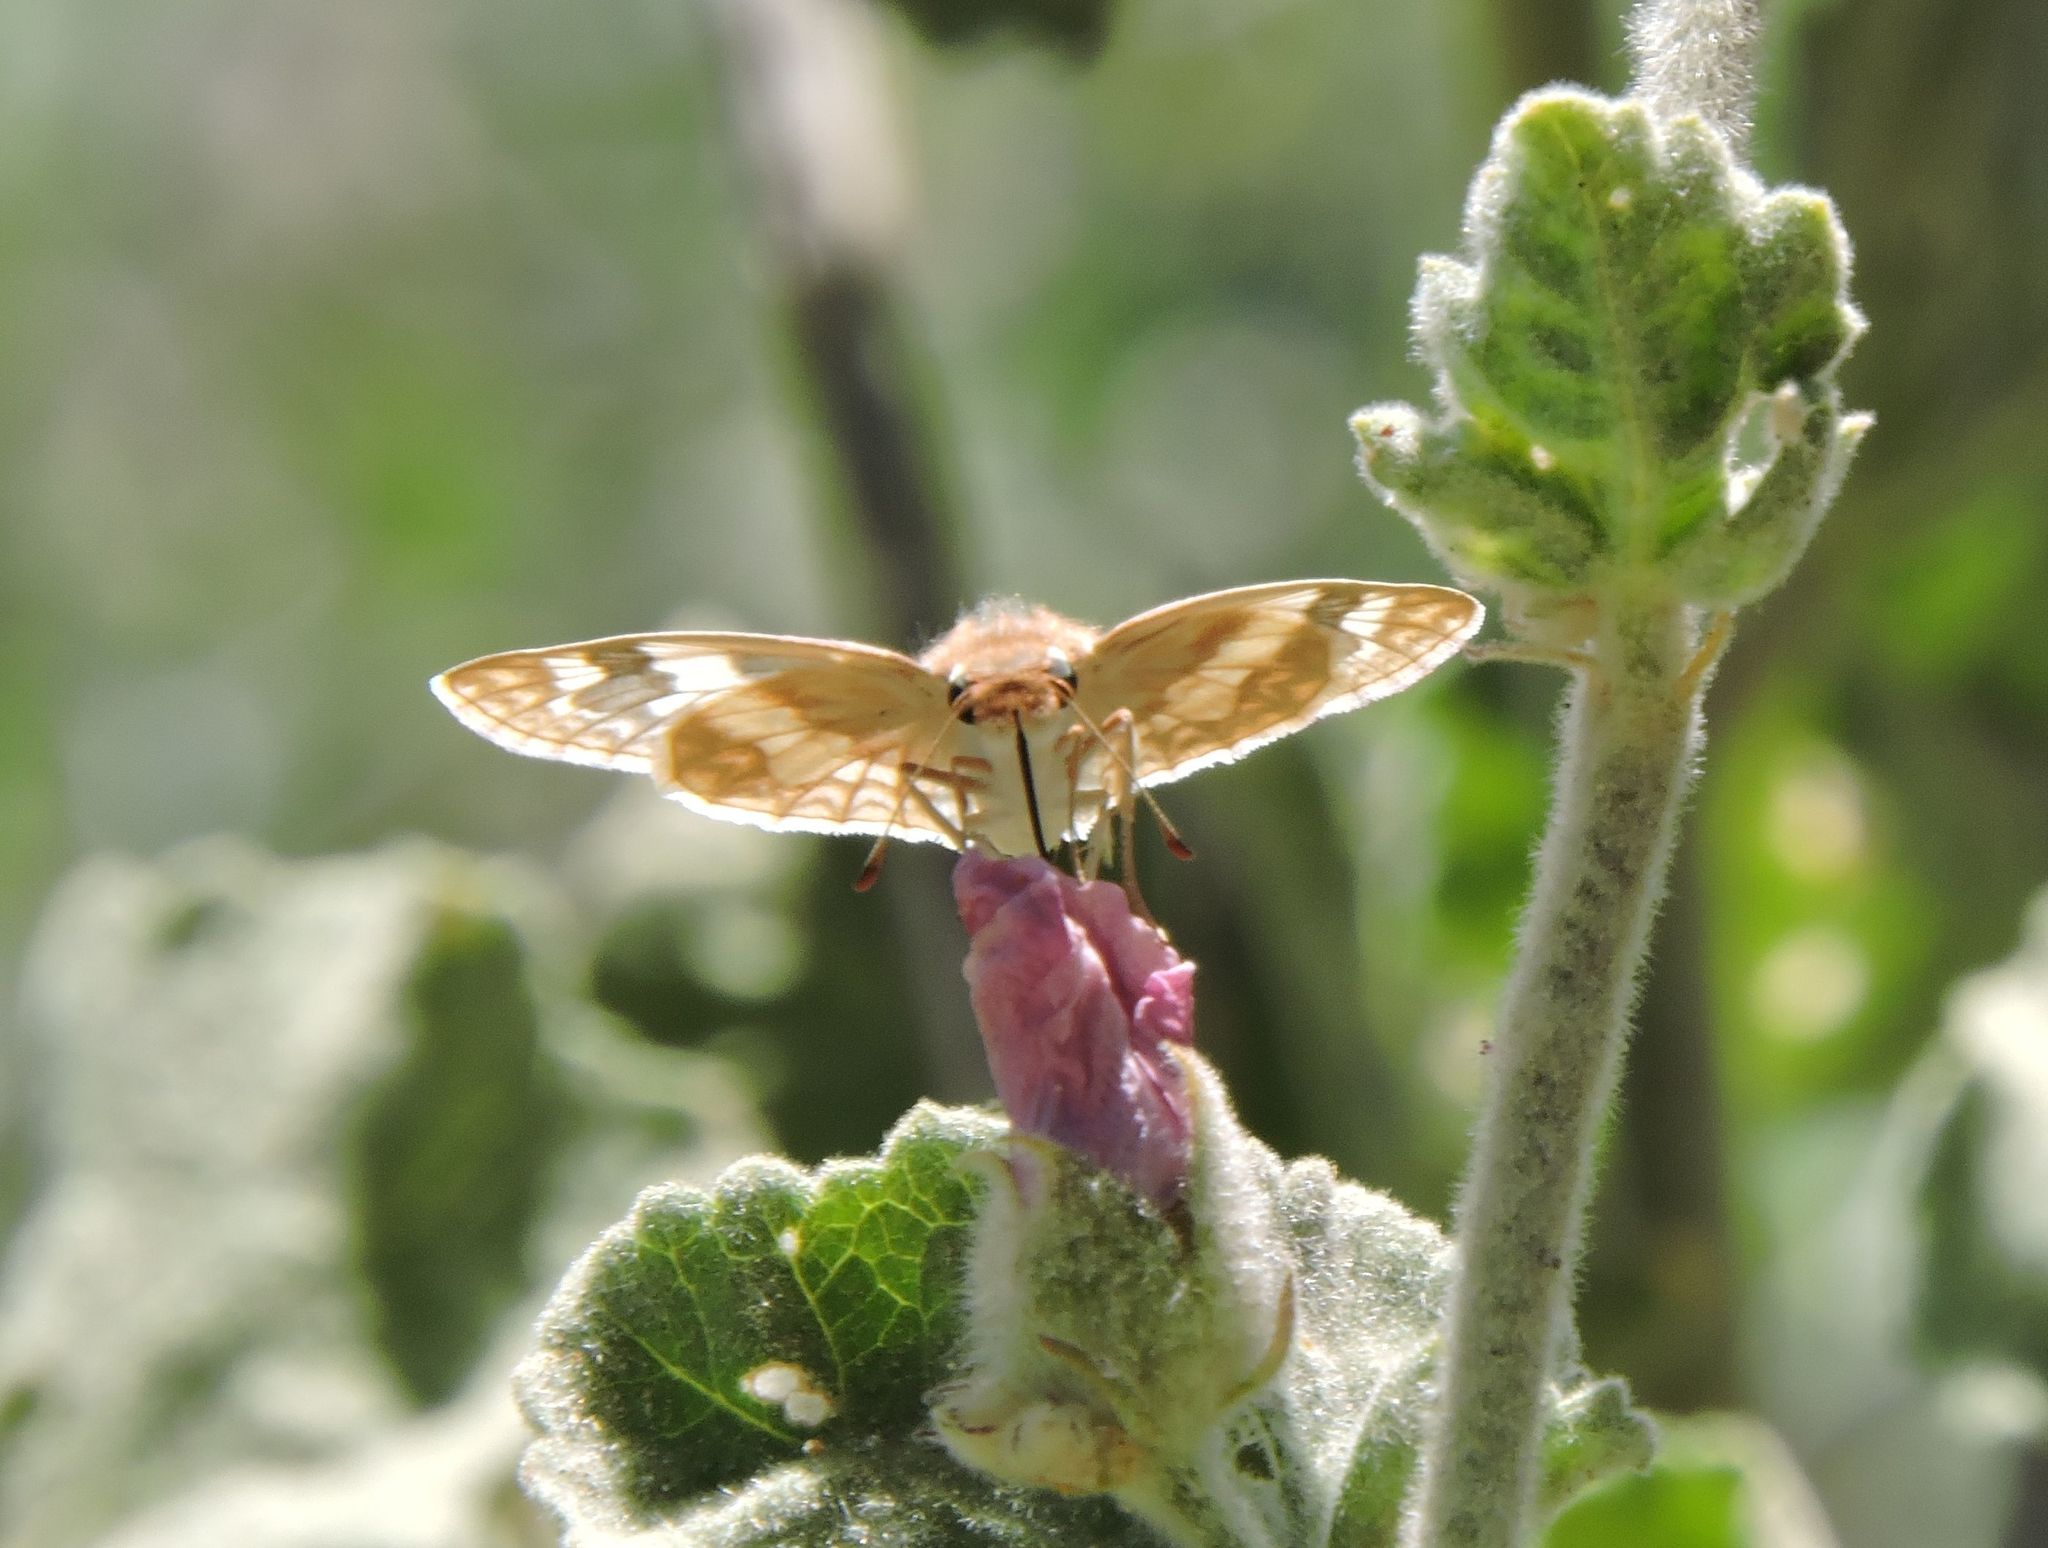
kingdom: Animalia
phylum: Arthropoda
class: Insecta
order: Lepidoptera
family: Hesperiidae
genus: Heliopetes
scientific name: Heliopetes ericetorum
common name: Northern white-skipper
